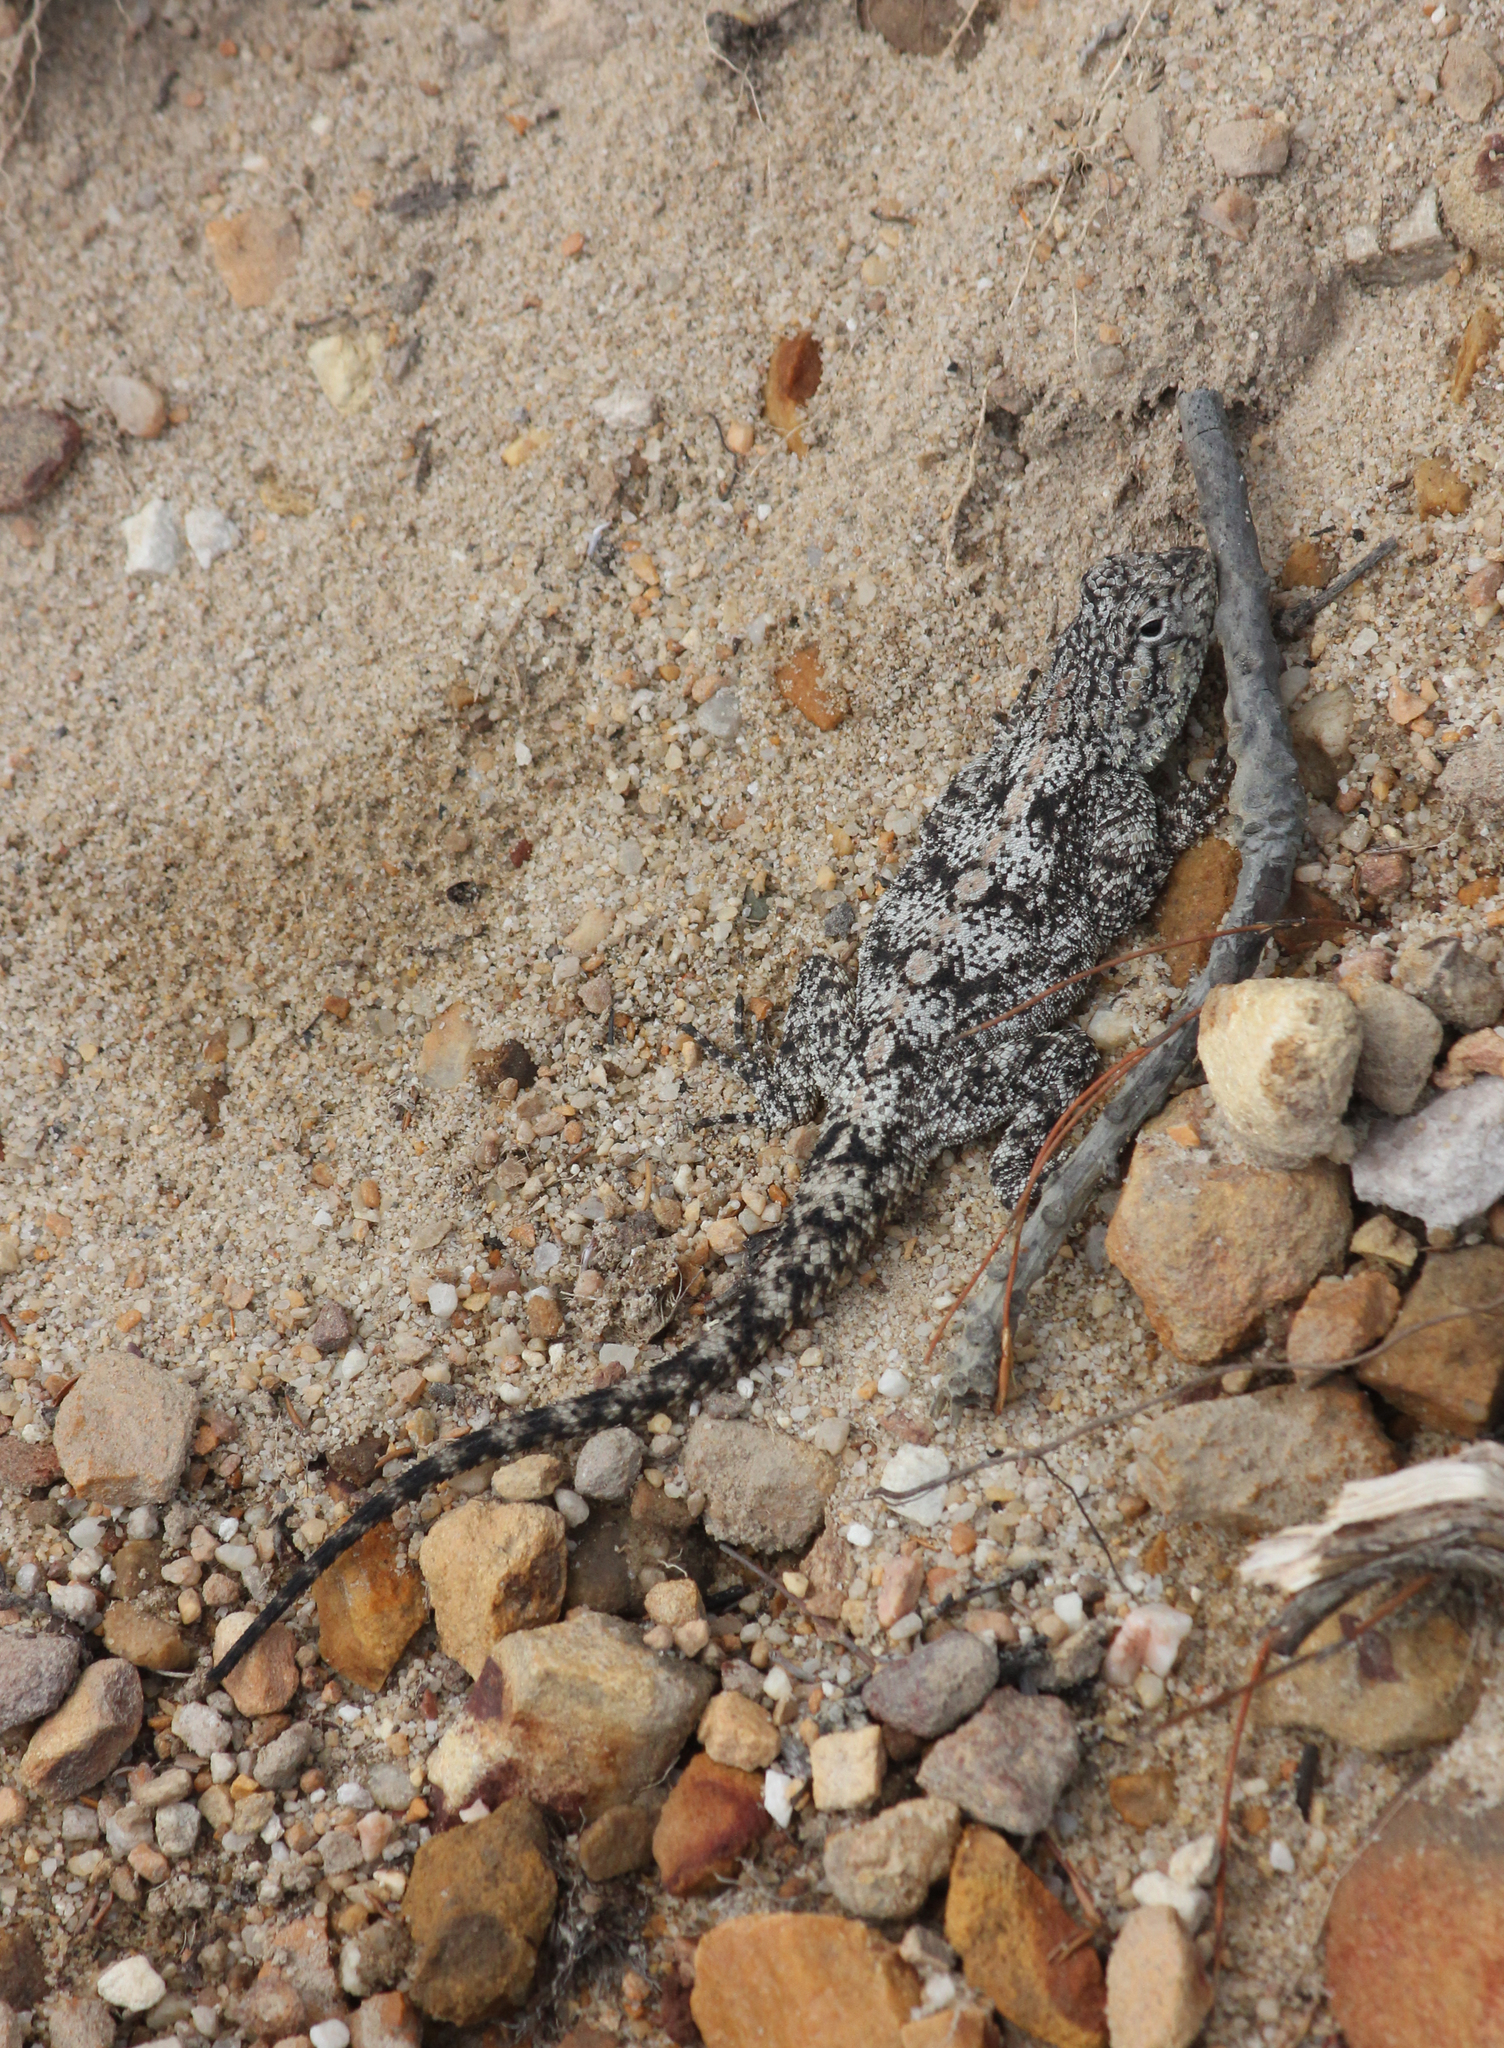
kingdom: Animalia
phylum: Chordata
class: Squamata
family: Agamidae
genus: Agama
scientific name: Agama atra
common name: Southern african rock agama
